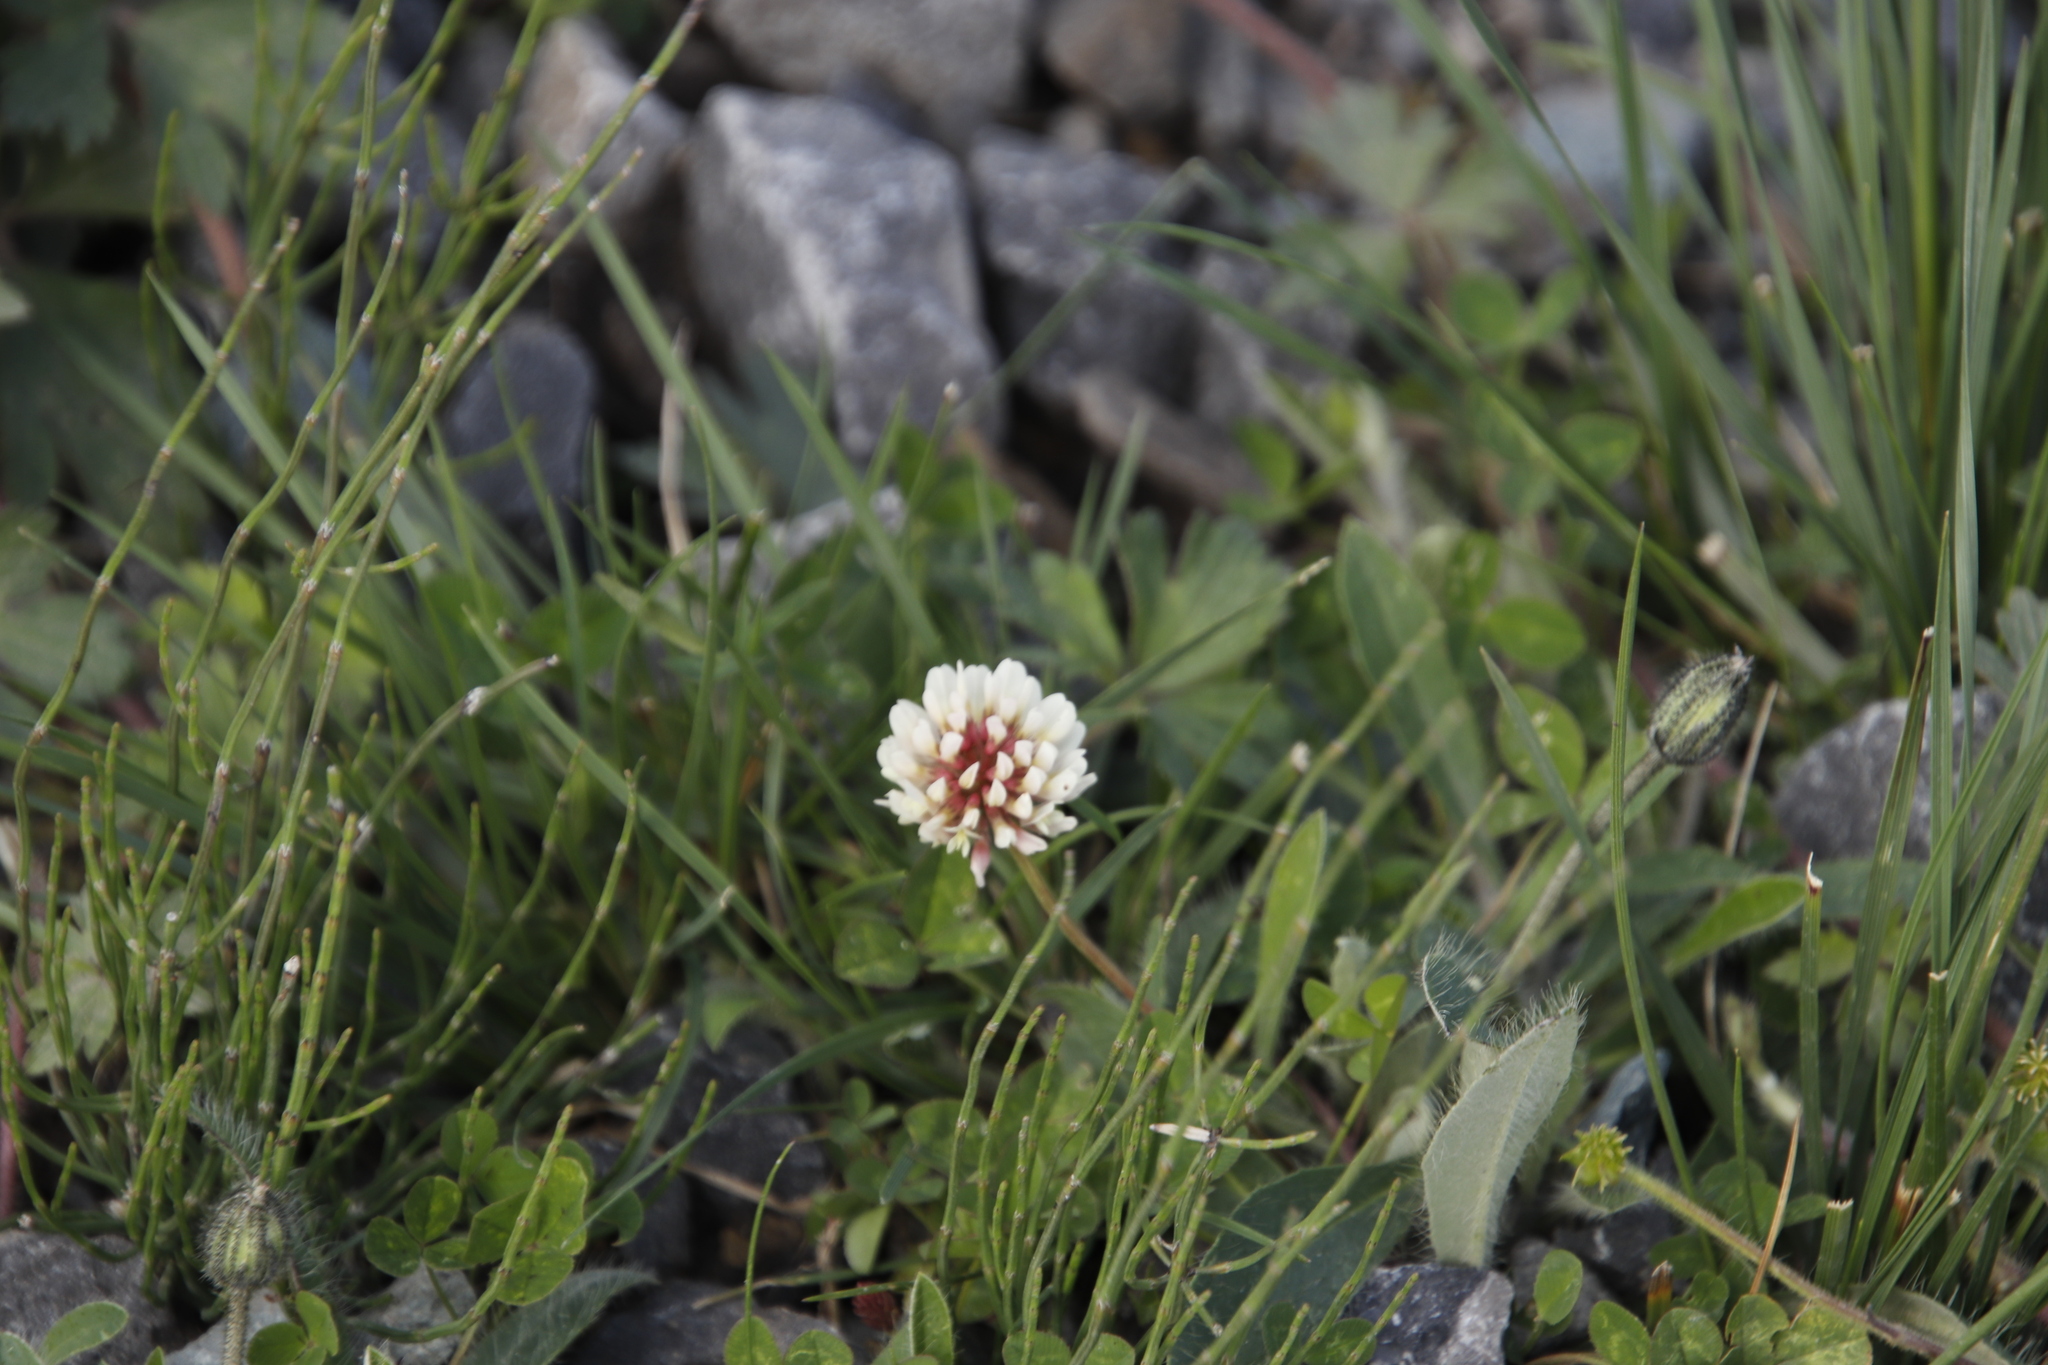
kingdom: Plantae
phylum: Tracheophyta
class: Magnoliopsida
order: Fabales
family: Fabaceae
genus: Trifolium
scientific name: Trifolium repens
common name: White clover
